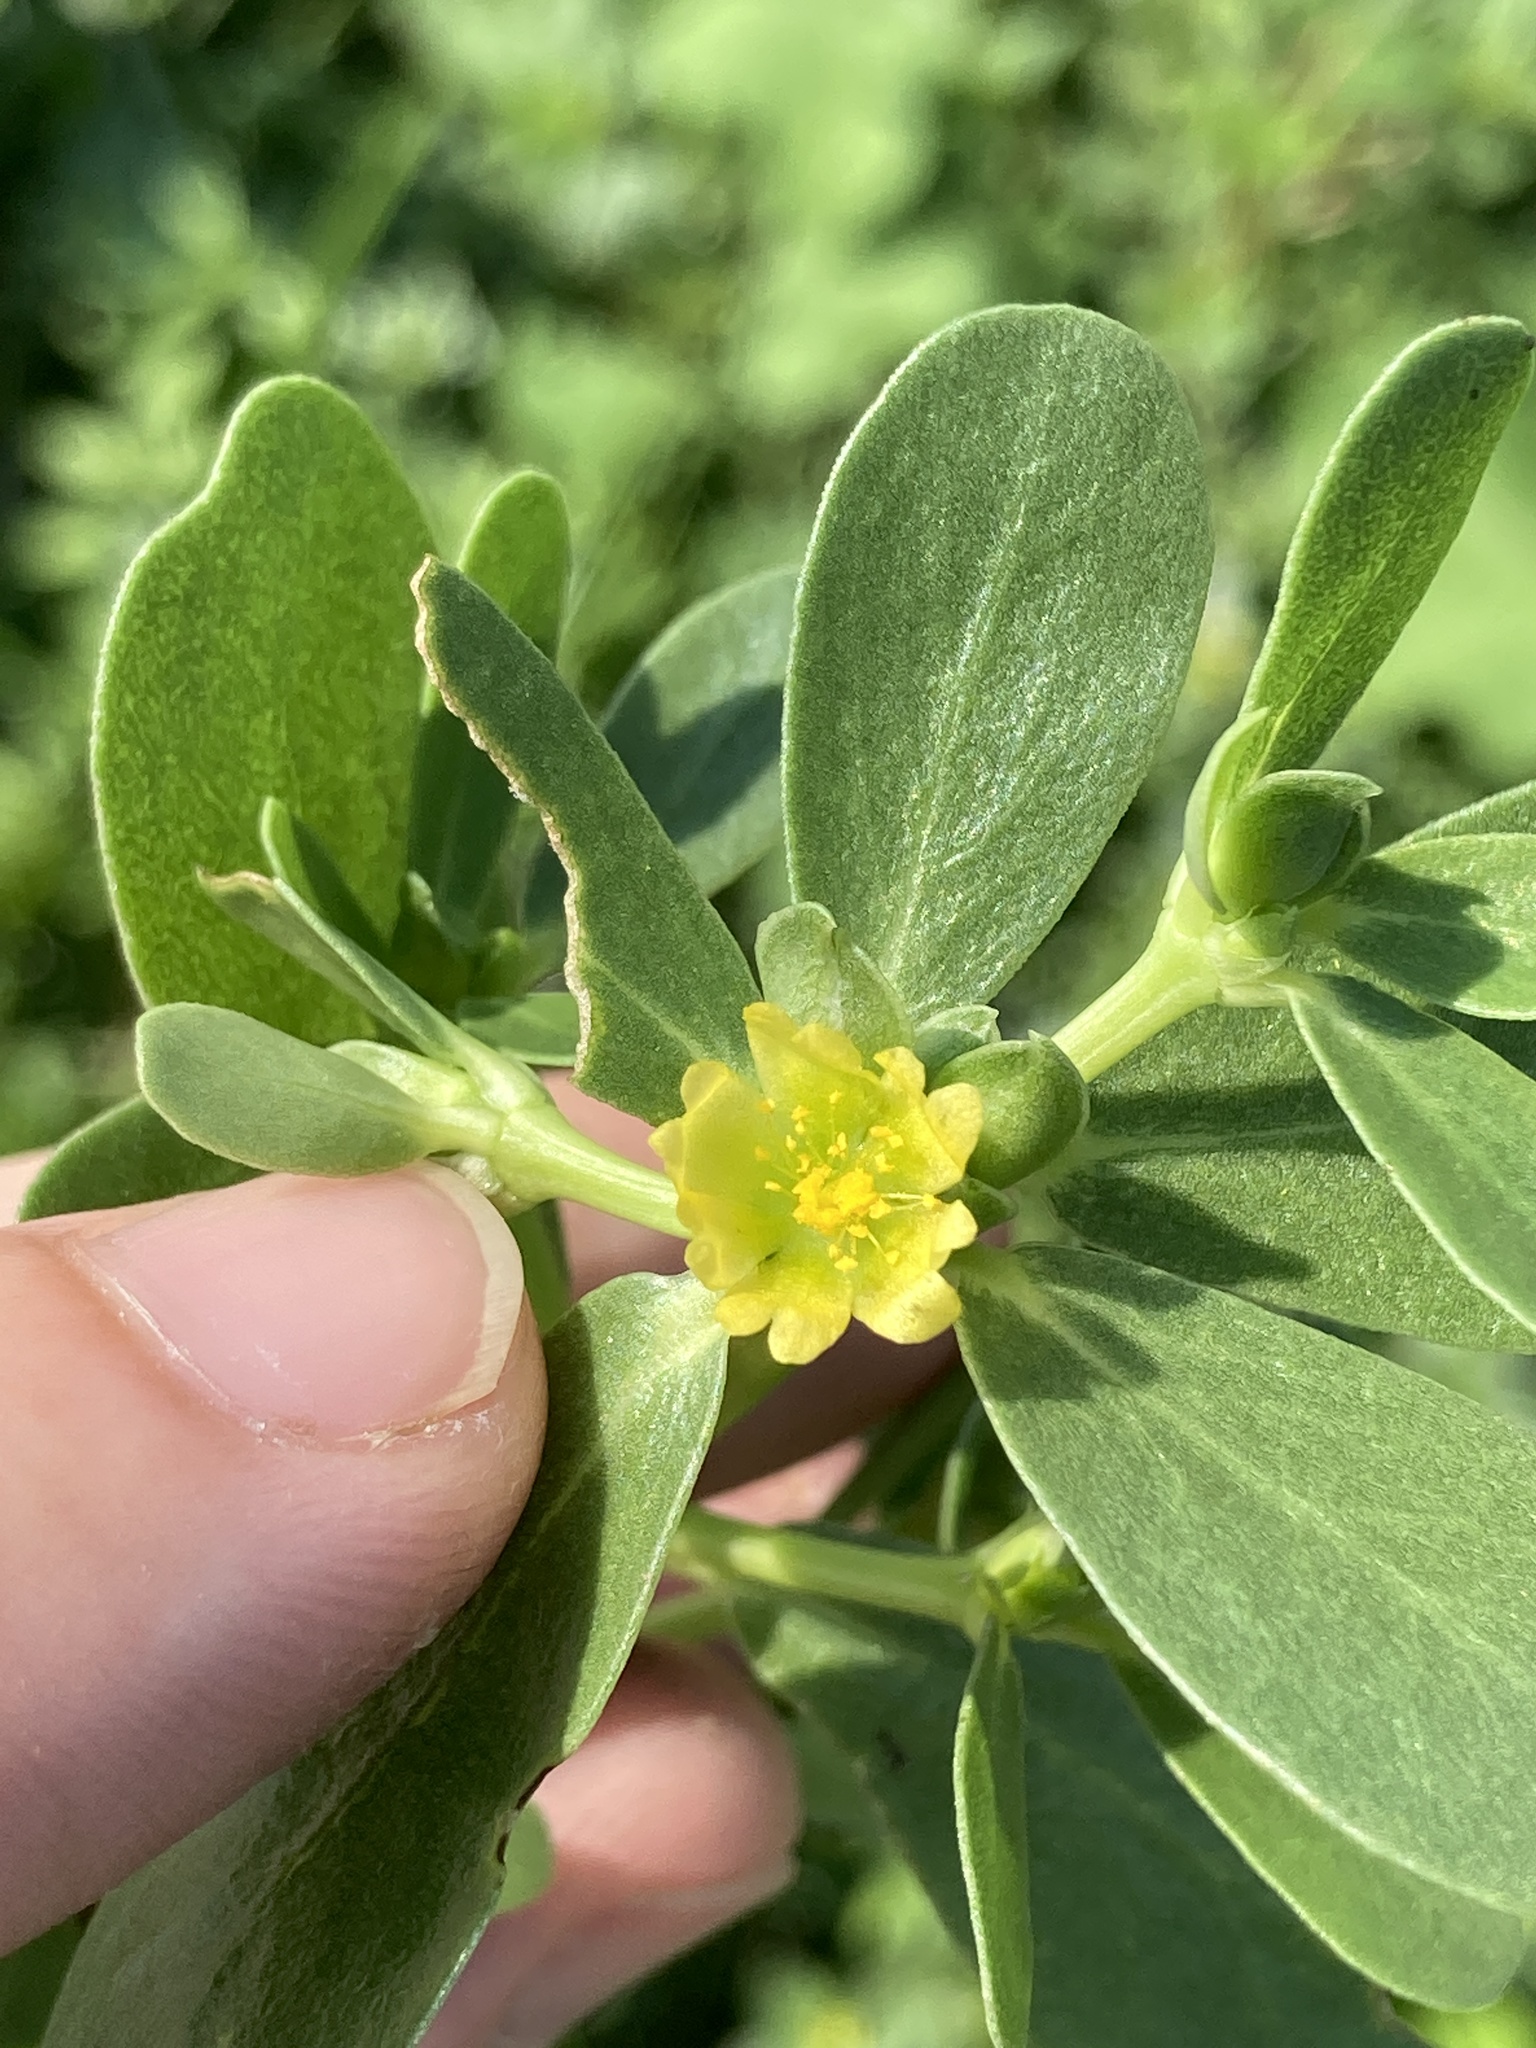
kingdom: Plantae
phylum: Tracheophyta
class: Magnoliopsida
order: Caryophyllales
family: Portulacaceae
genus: Portulaca
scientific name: Portulaca oleracea
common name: Common purslane
